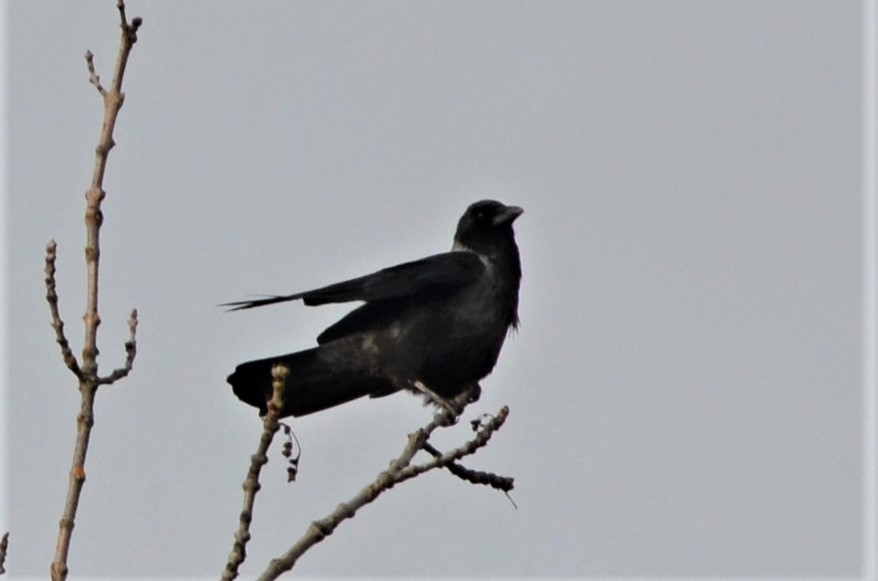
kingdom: Animalia
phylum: Chordata
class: Aves
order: Passeriformes
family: Corvidae
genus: Corvus
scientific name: Corvus
